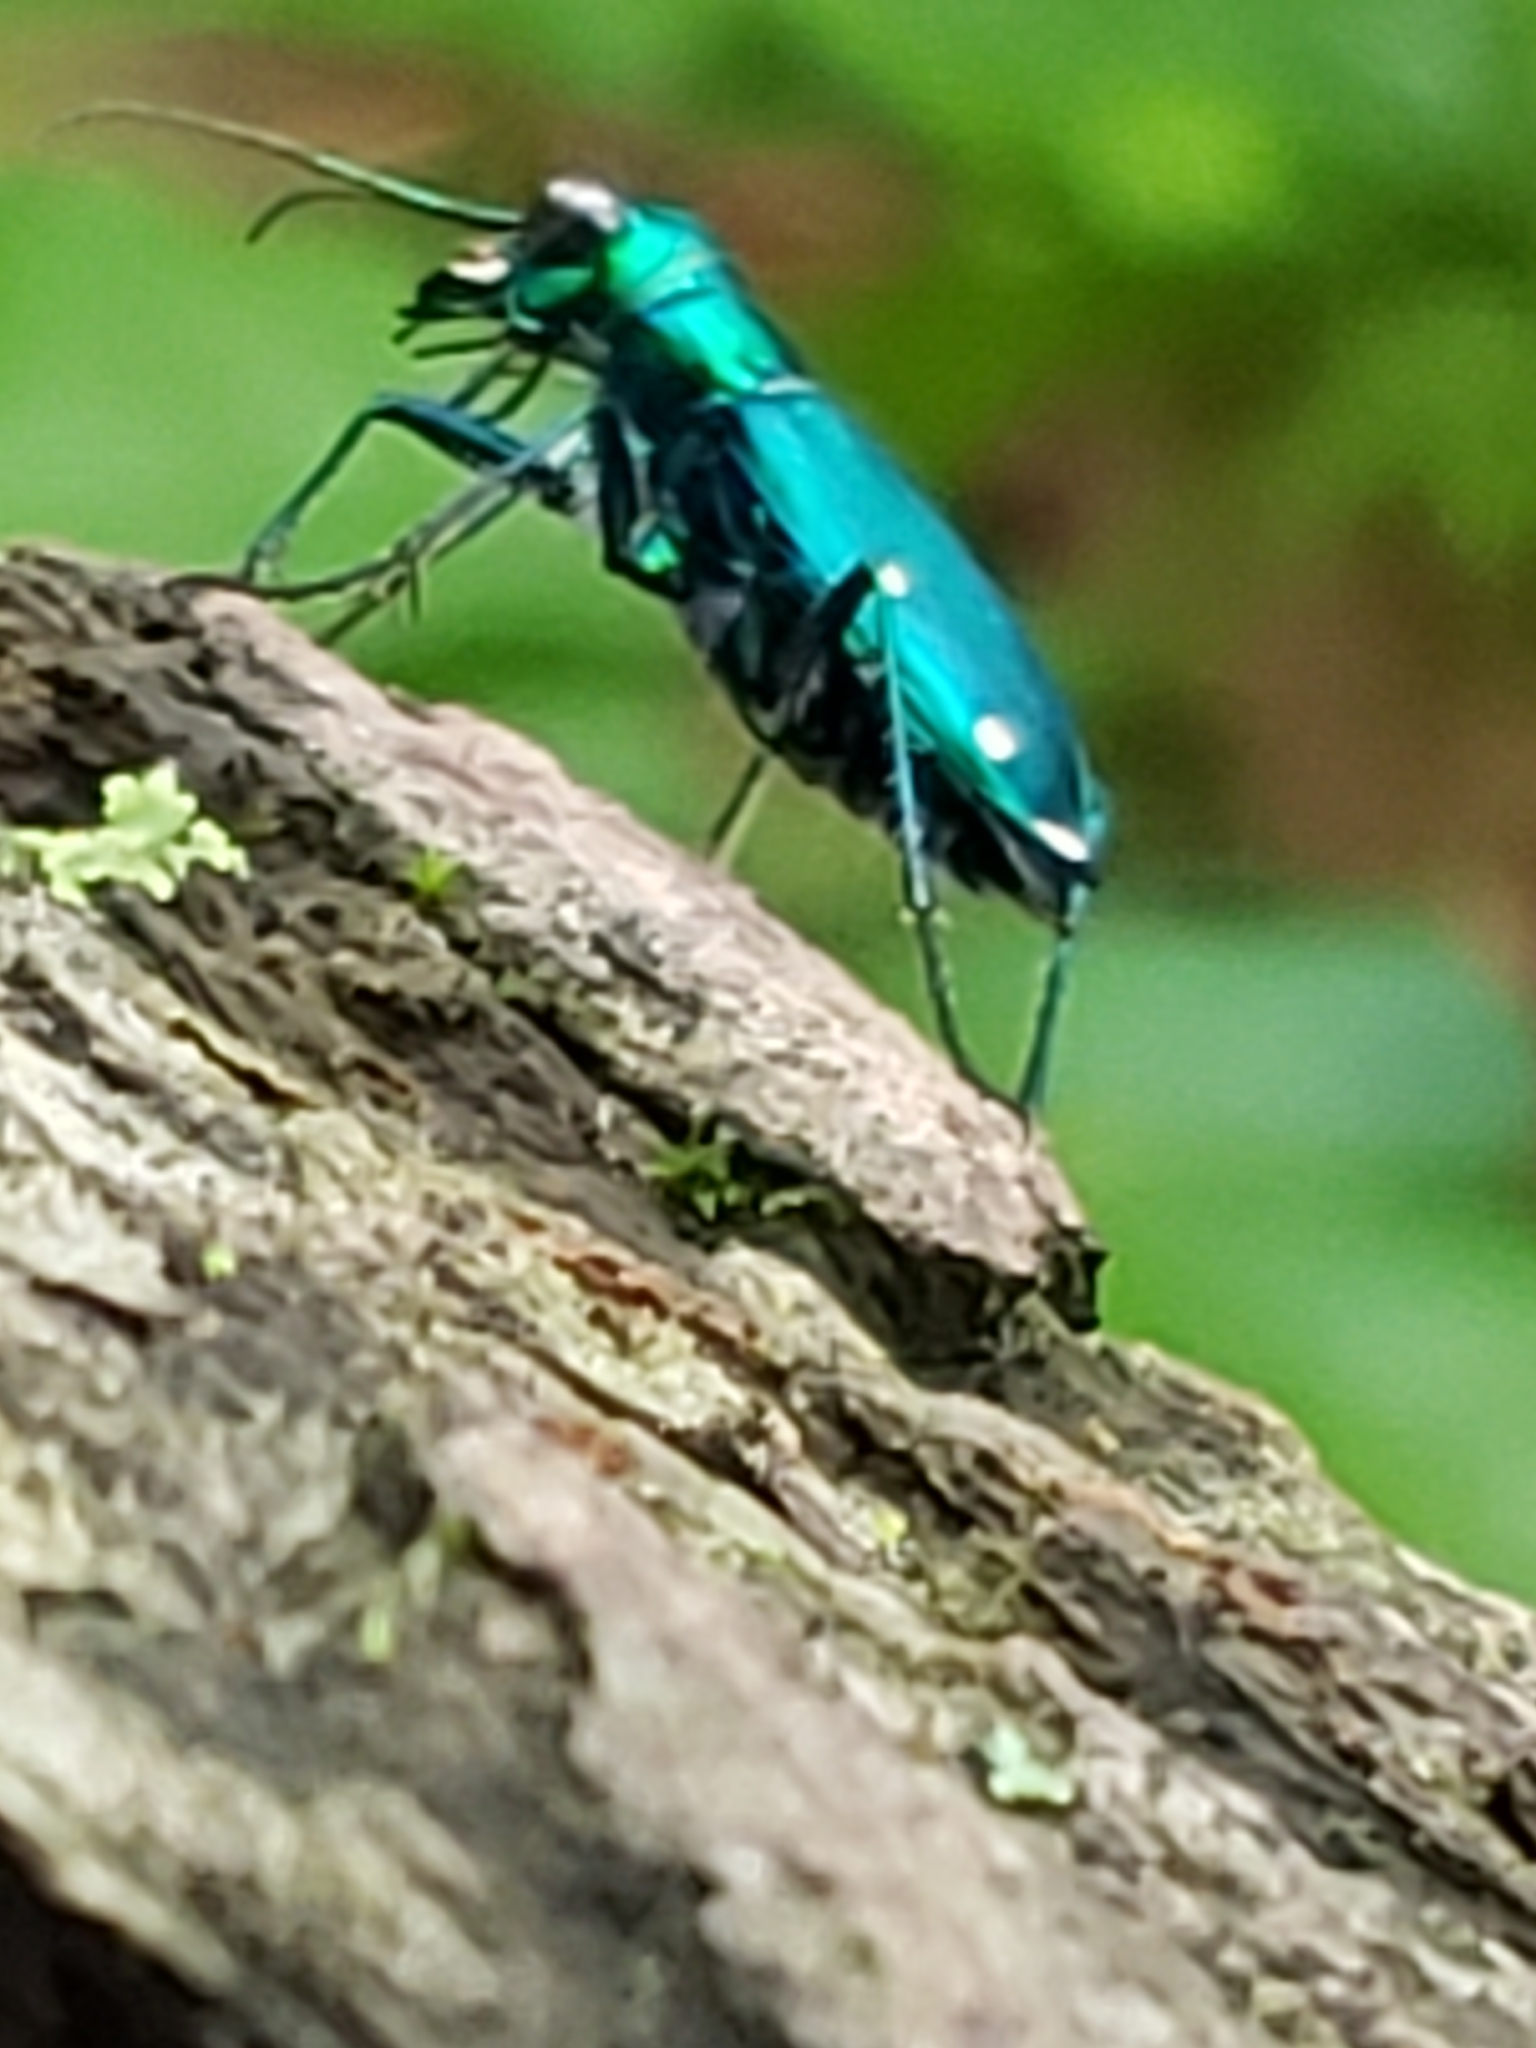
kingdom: Animalia
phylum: Arthropoda
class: Insecta
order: Coleoptera
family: Carabidae
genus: Cicindela
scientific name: Cicindela sexguttata
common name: Six-spotted tiger beetle
